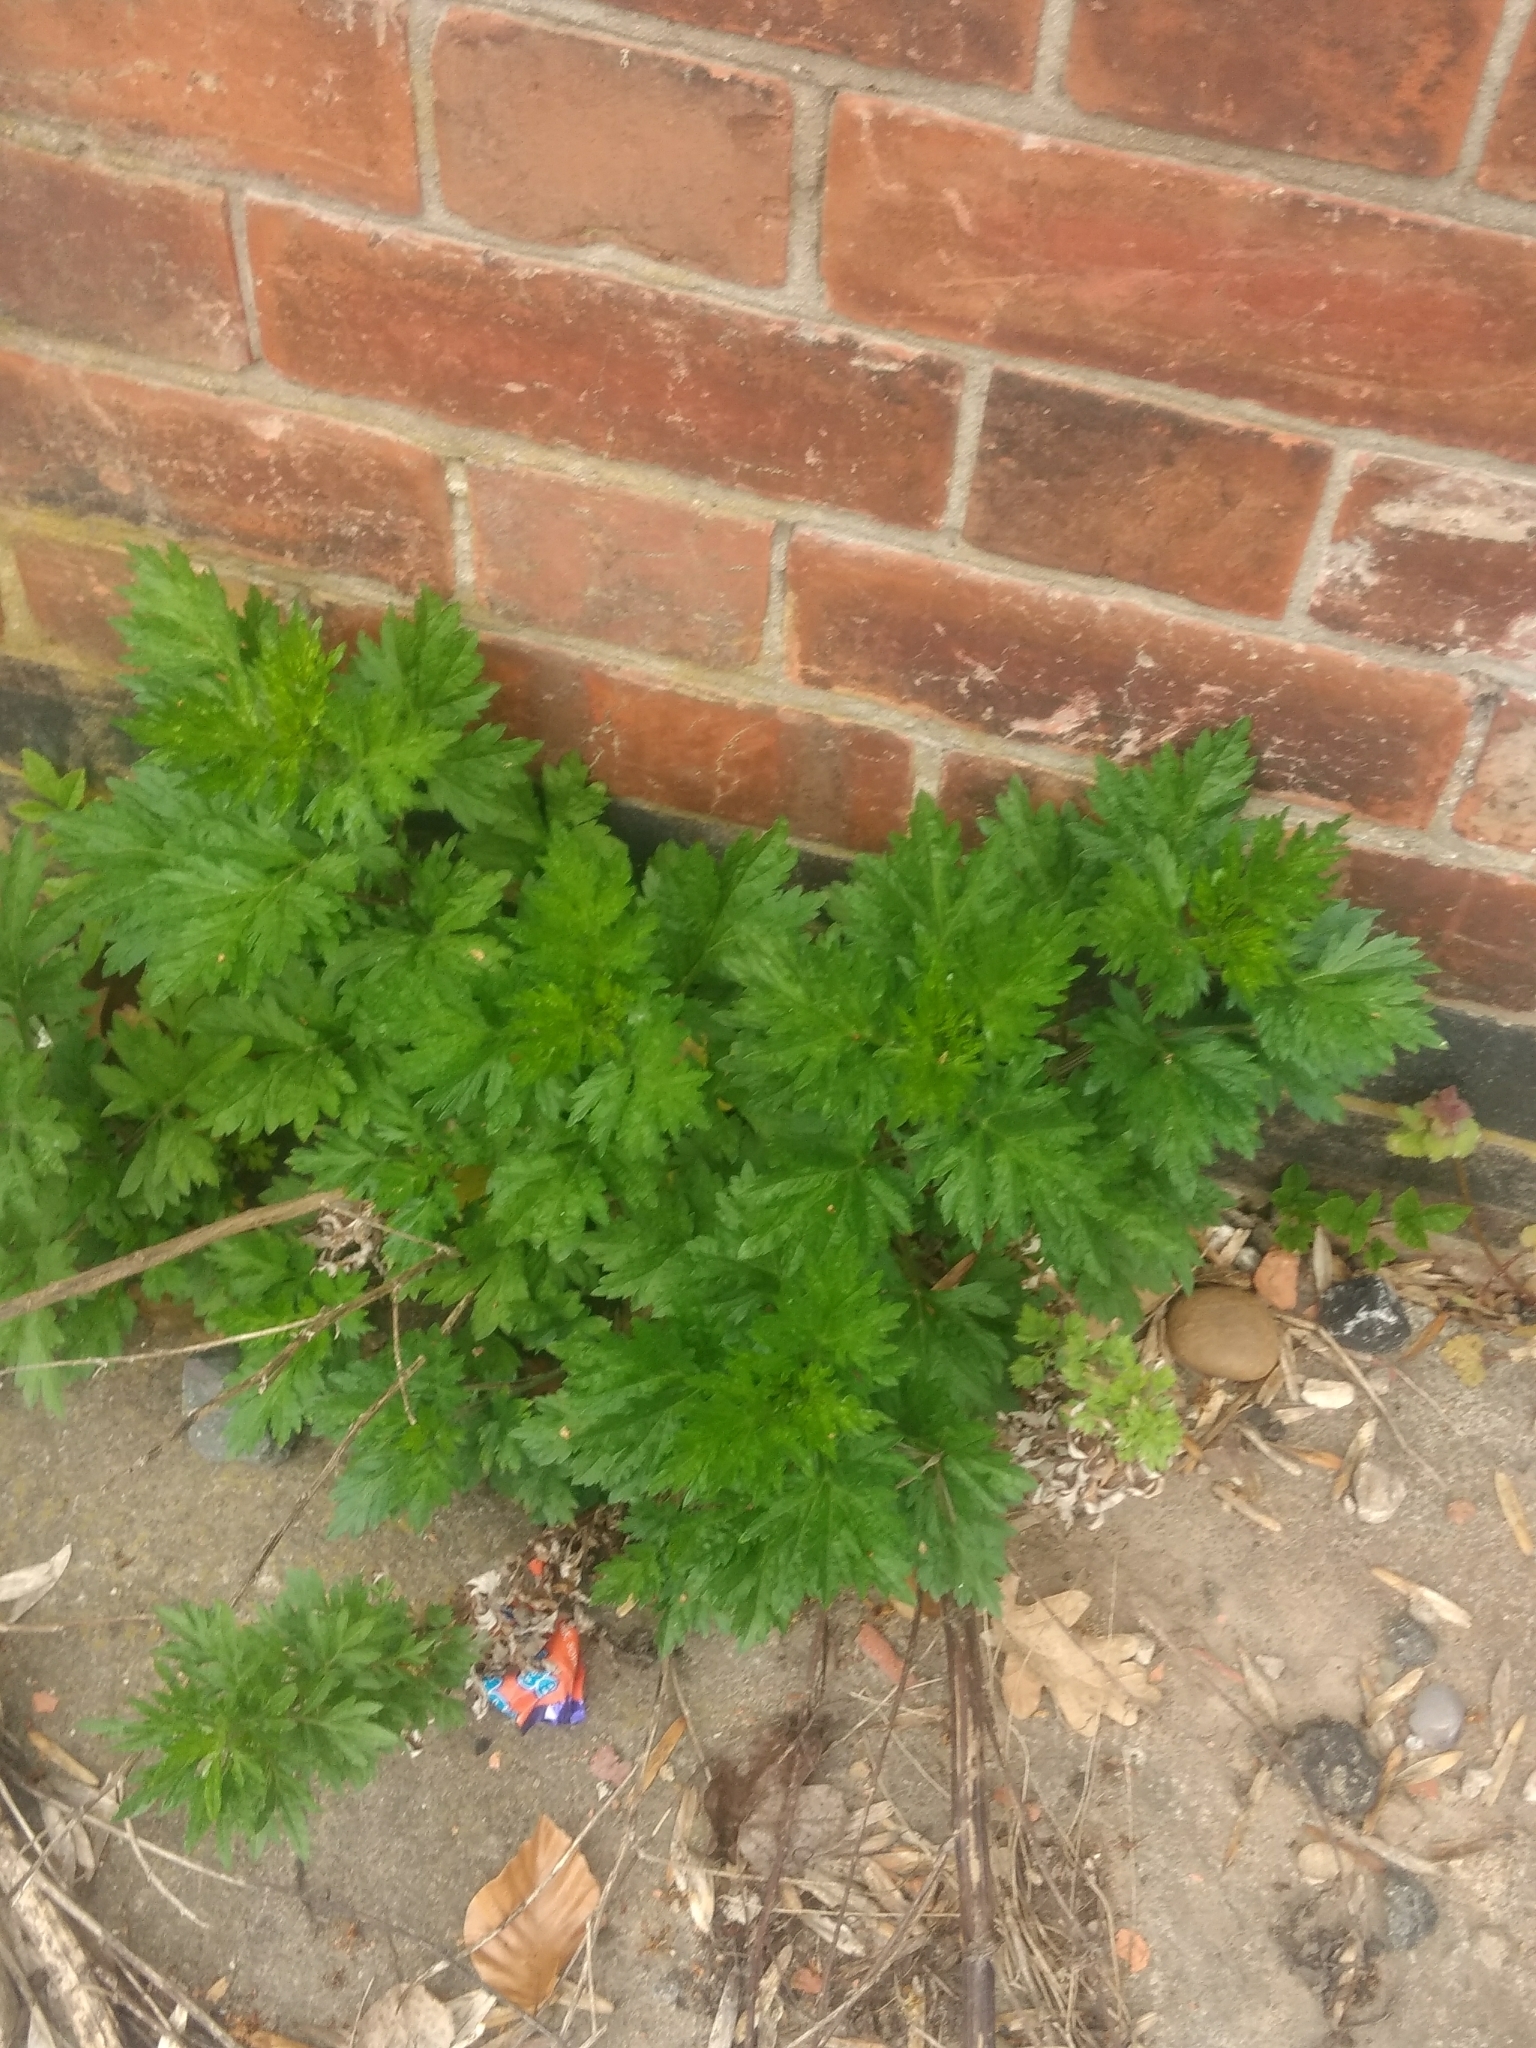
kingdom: Plantae
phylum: Tracheophyta
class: Magnoliopsida
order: Asterales
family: Asteraceae
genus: Artemisia
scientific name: Artemisia vulgaris
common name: Mugwort
